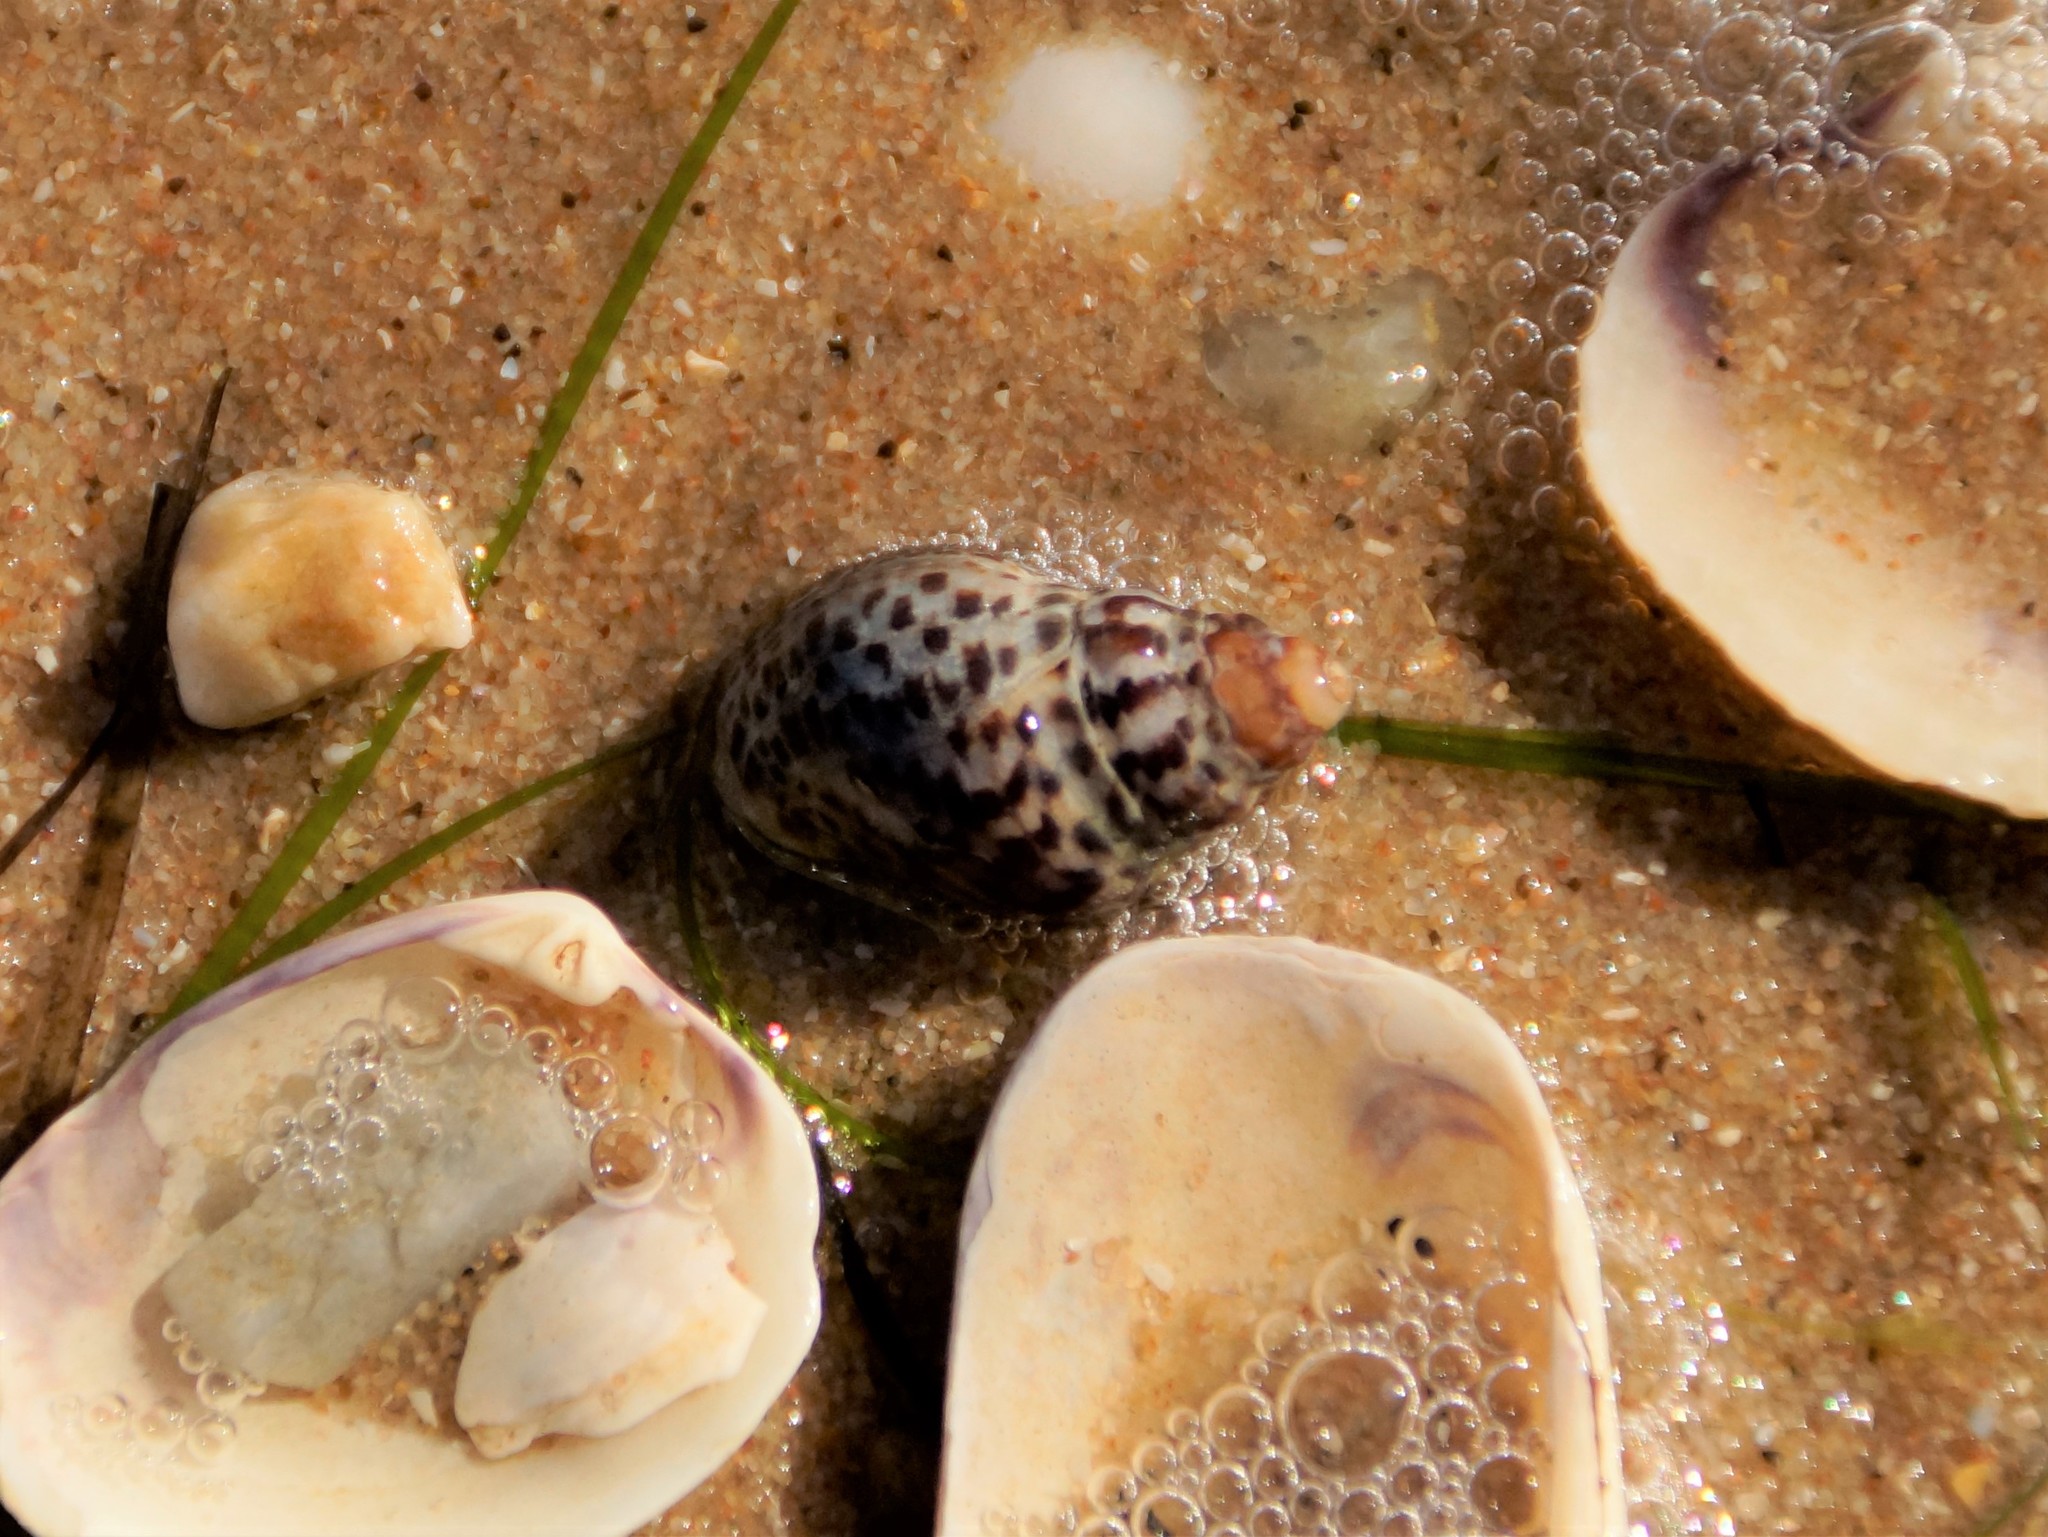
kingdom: Animalia
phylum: Mollusca
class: Gastropoda
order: Neogastropoda
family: Cominellidae
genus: Cominella
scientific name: Cominella lineolata
